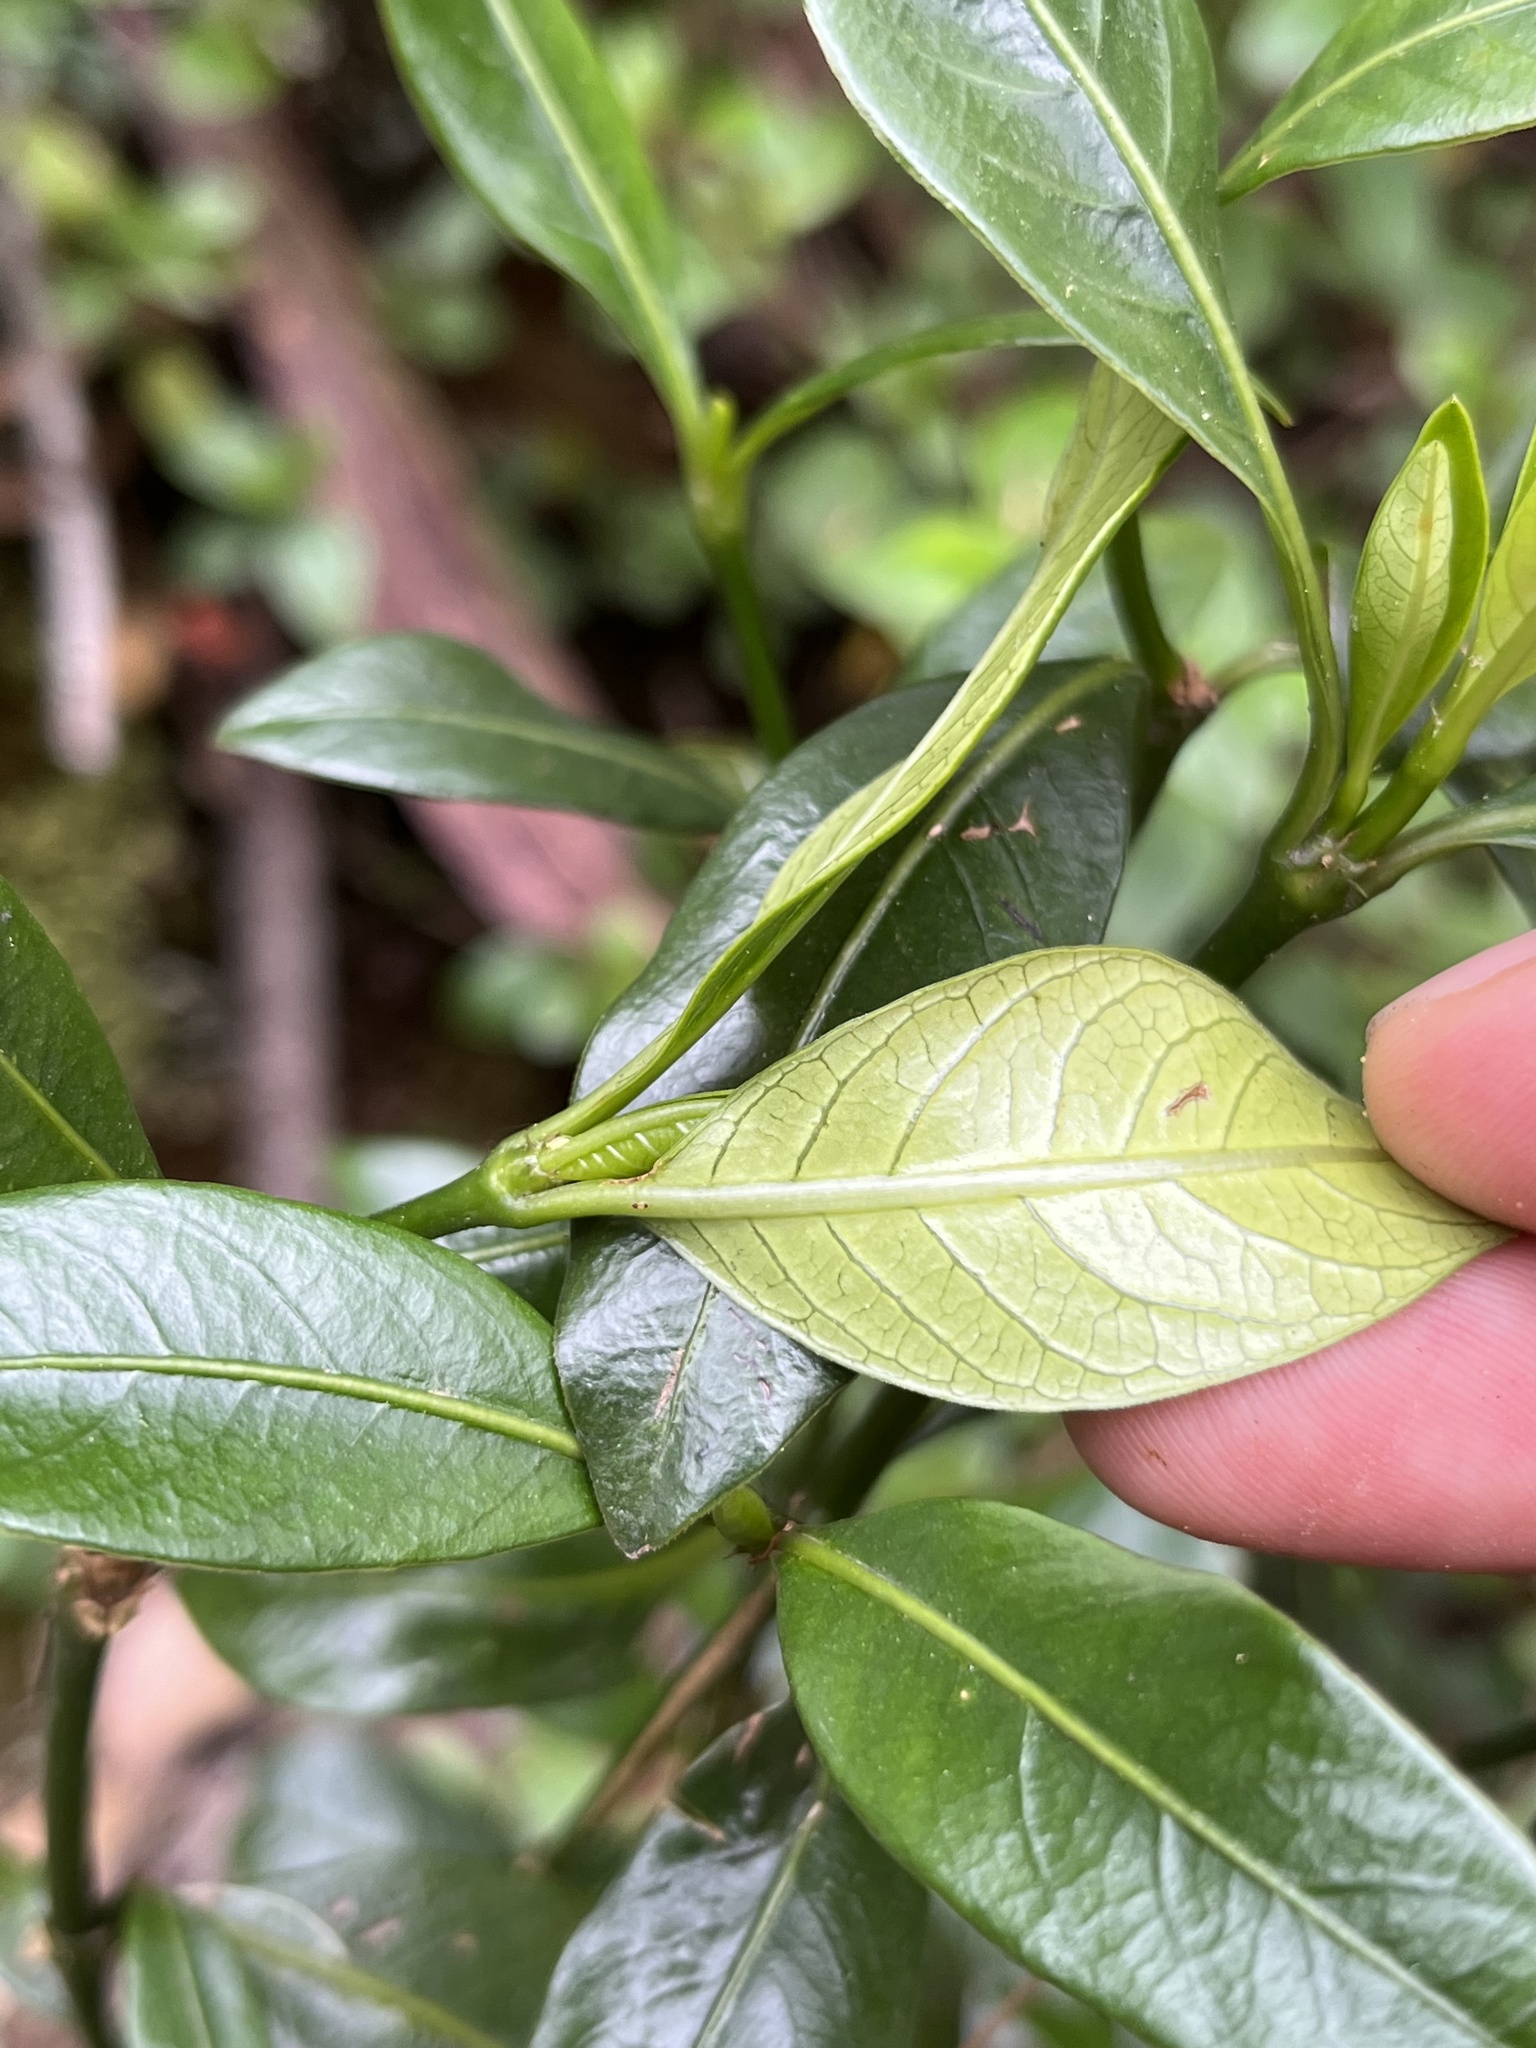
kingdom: Plantae
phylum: Tracheophyta
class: Magnoliopsida
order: Gentianales
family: Rubiaceae
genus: Palicourea
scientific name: Palicourea boqueronensis
